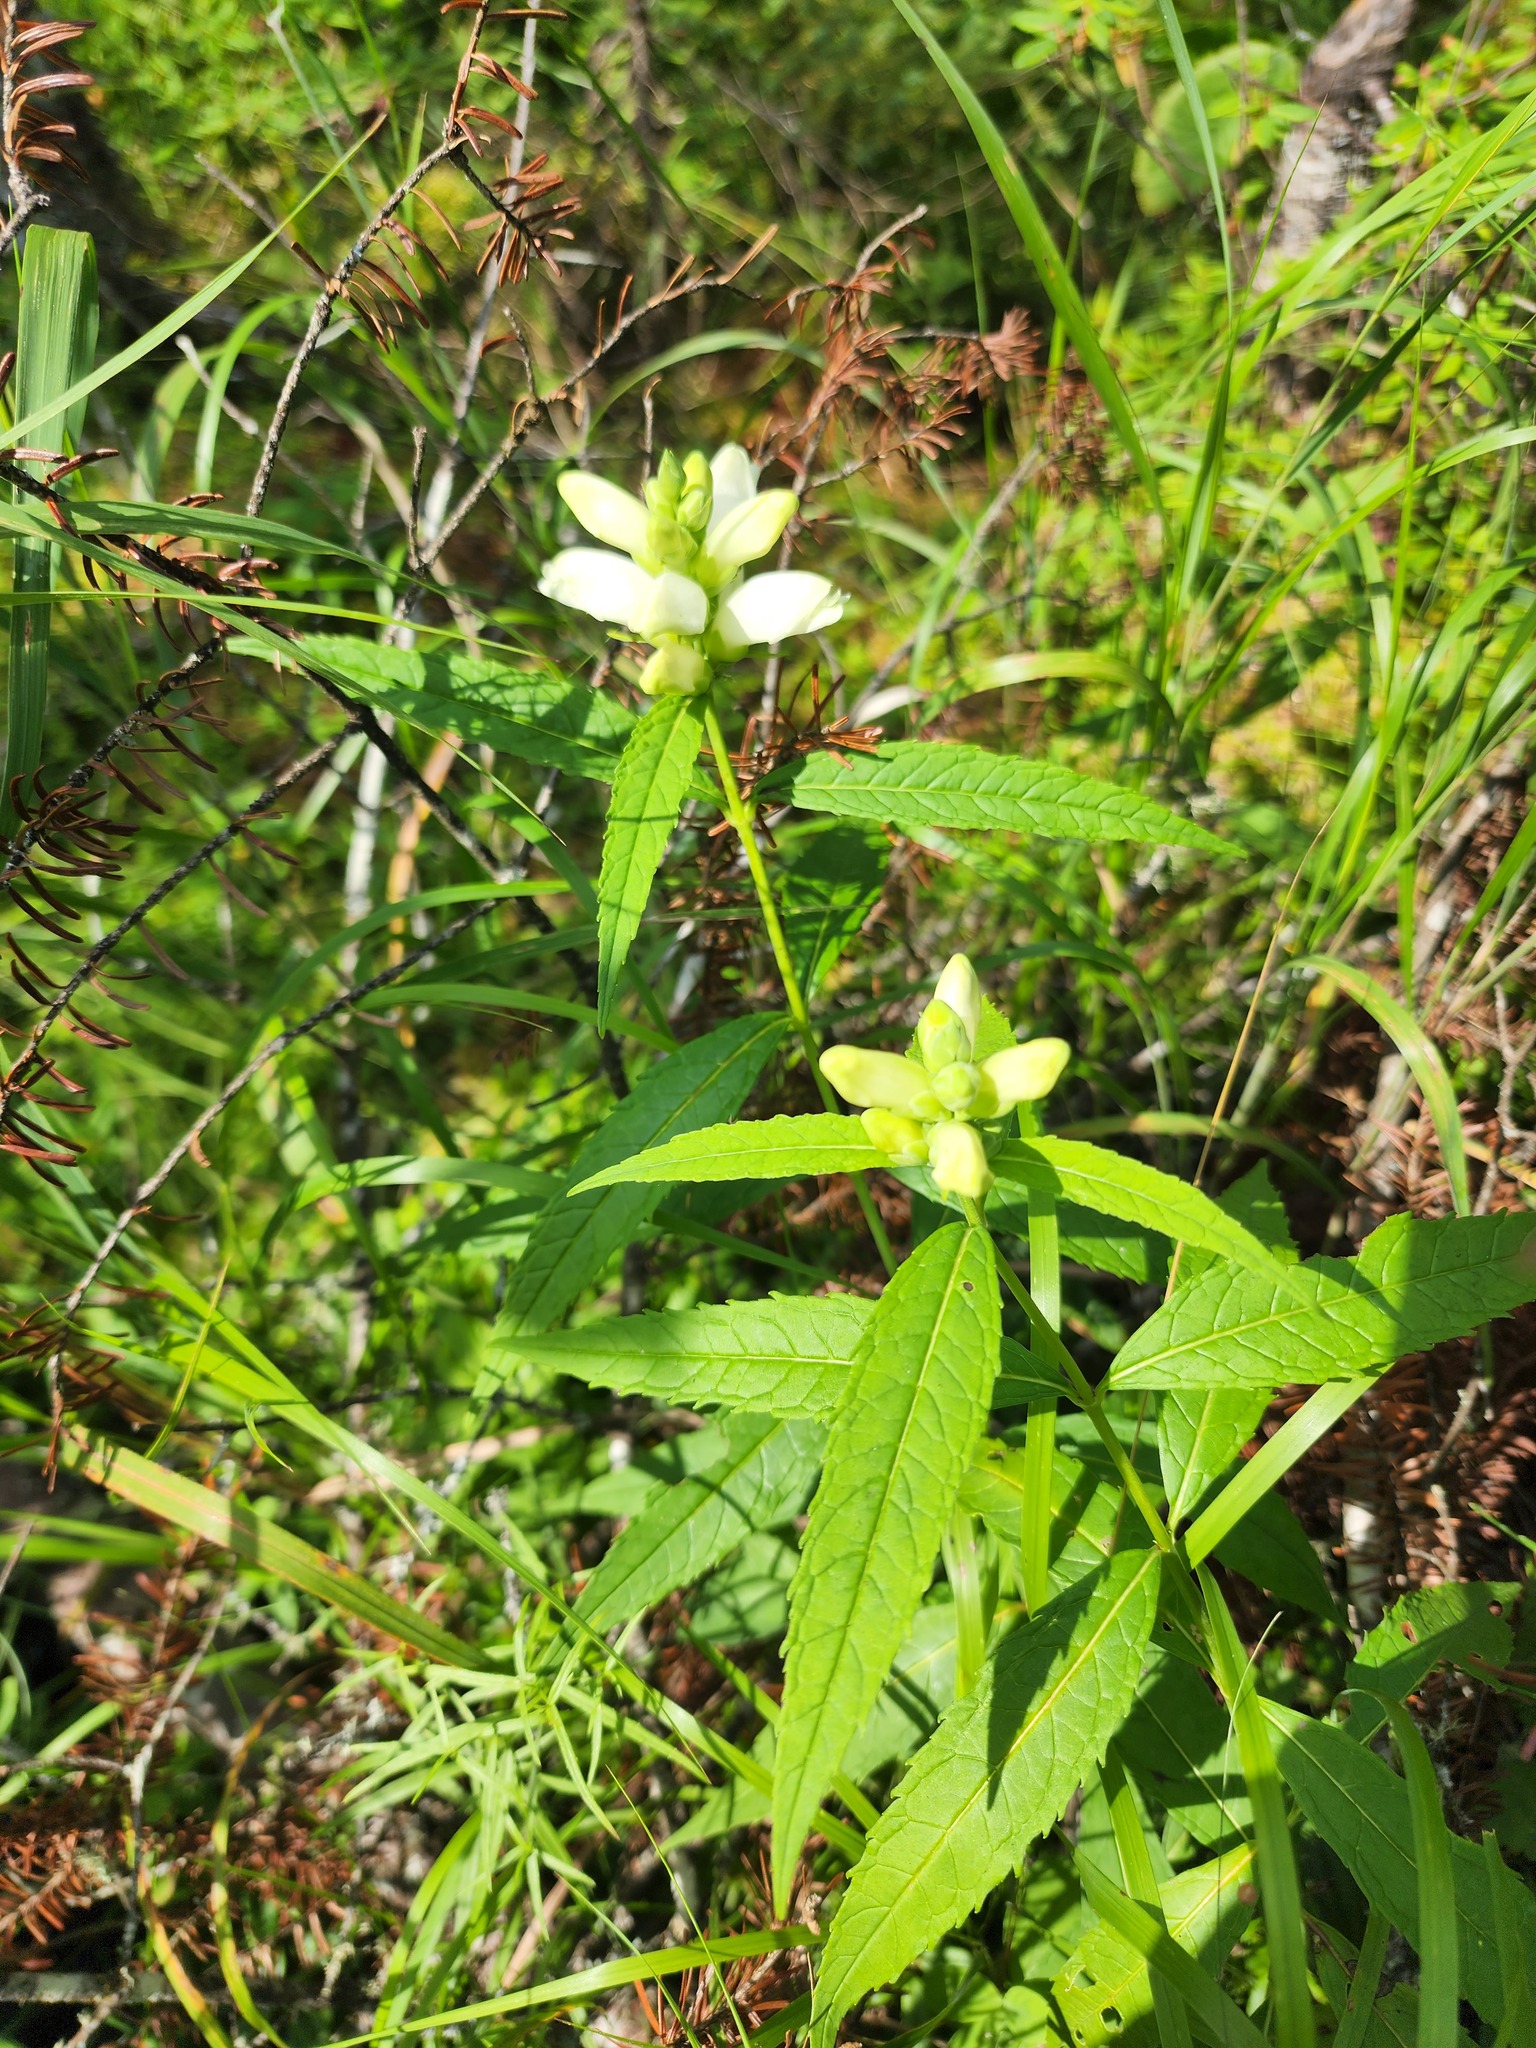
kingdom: Plantae
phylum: Tracheophyta
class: Magnoliopsida
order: Lamiales
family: Plantaginaceae
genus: Chelone
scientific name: Chelone glabra
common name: Snakehead
